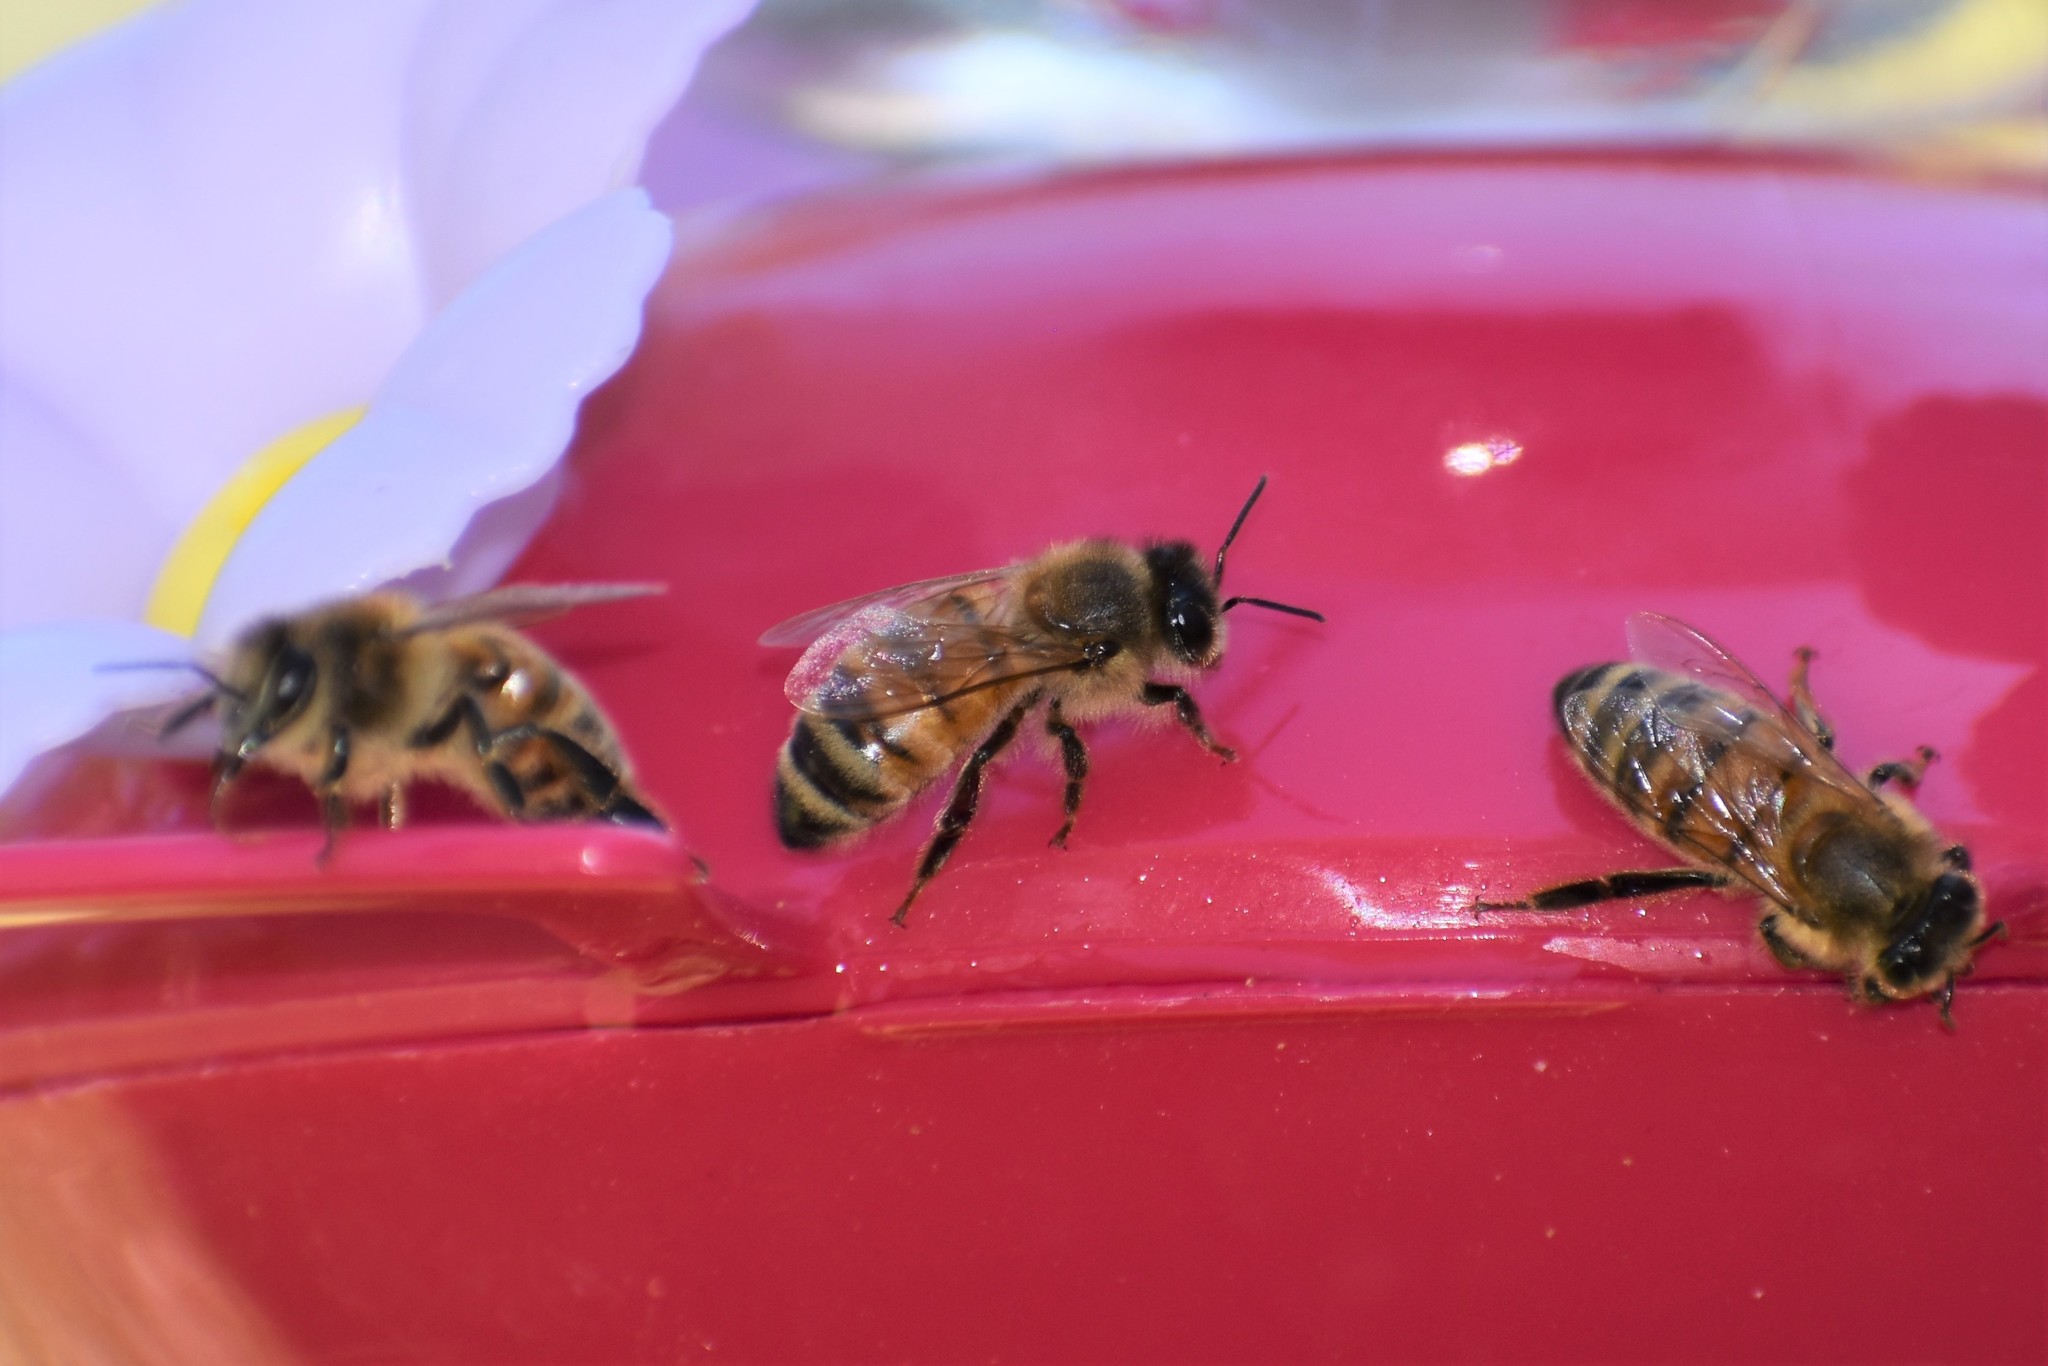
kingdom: Animalia
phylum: Arthropoda
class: Insecta
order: Hymenoptera
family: Apidae
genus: Apis
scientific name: Apis mellifera
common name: Honey bee
